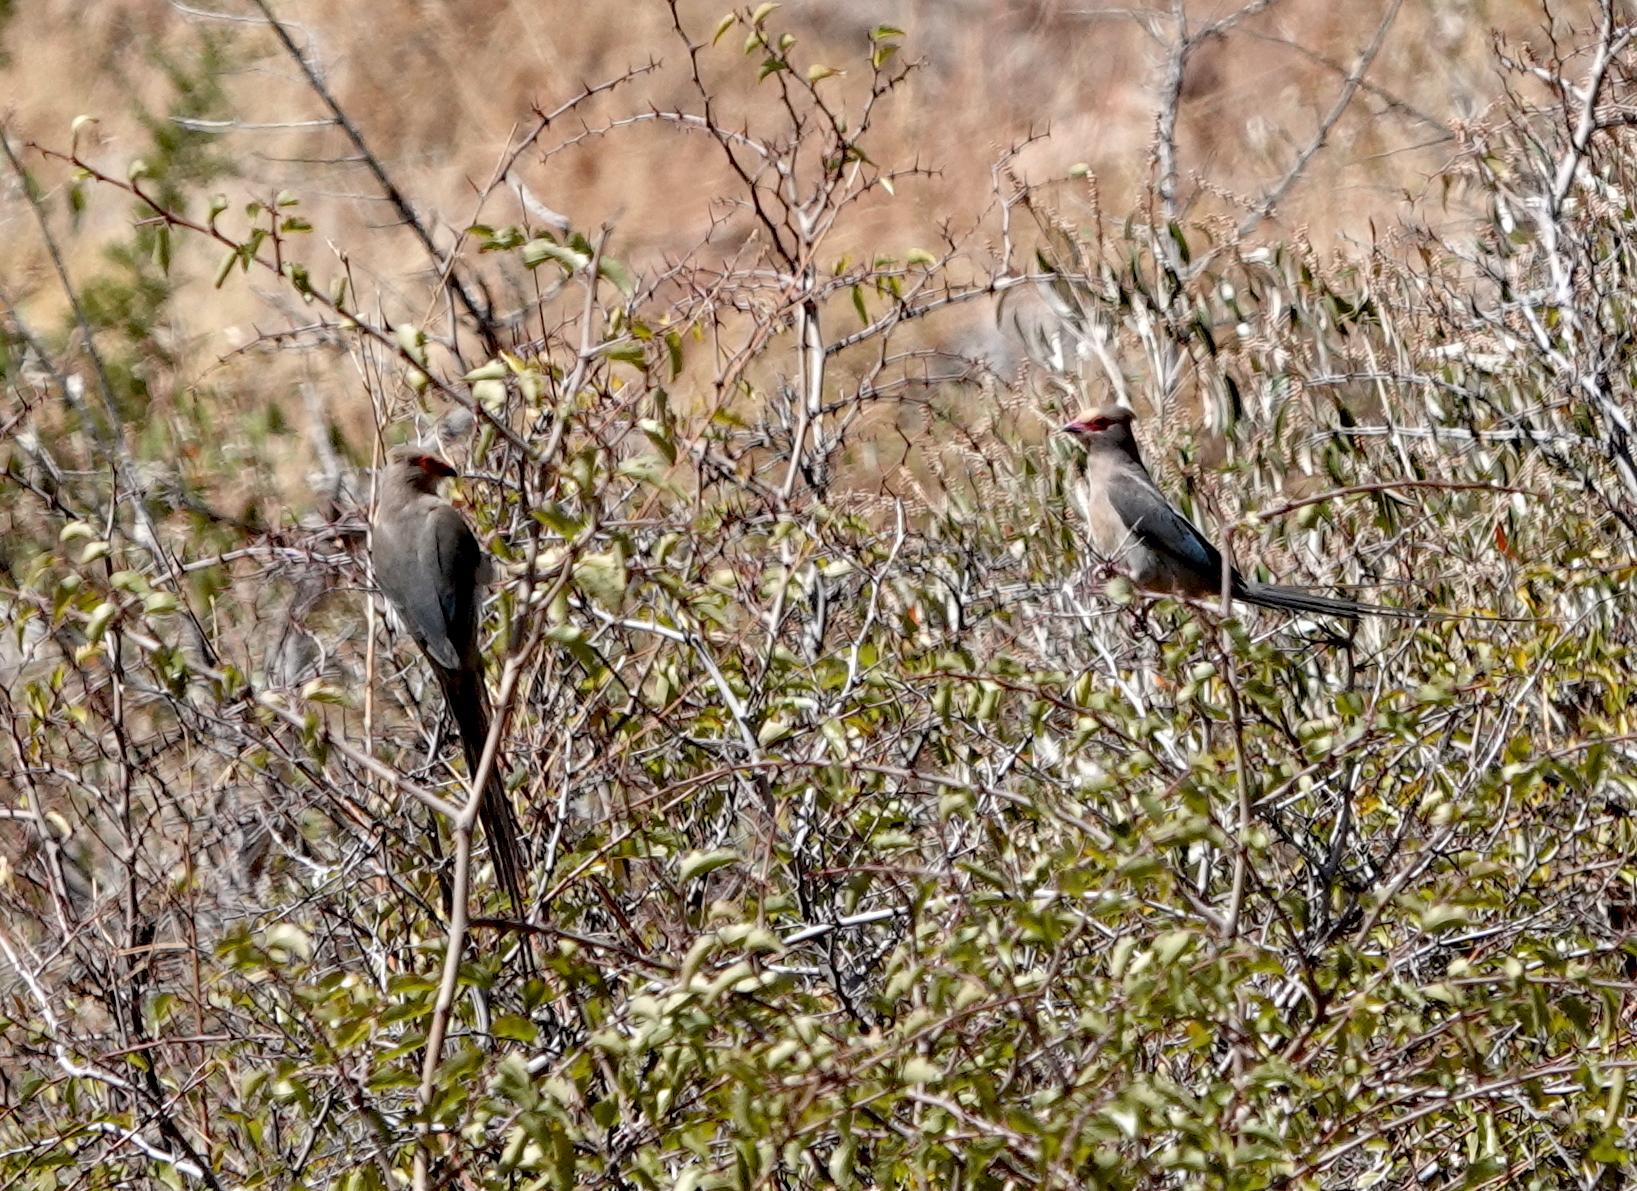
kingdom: Animalia
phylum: Chordata
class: Aves
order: Coliiformes
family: Coliidae
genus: Urocolius
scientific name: Urocolius indicus
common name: Red-faced mousebird
